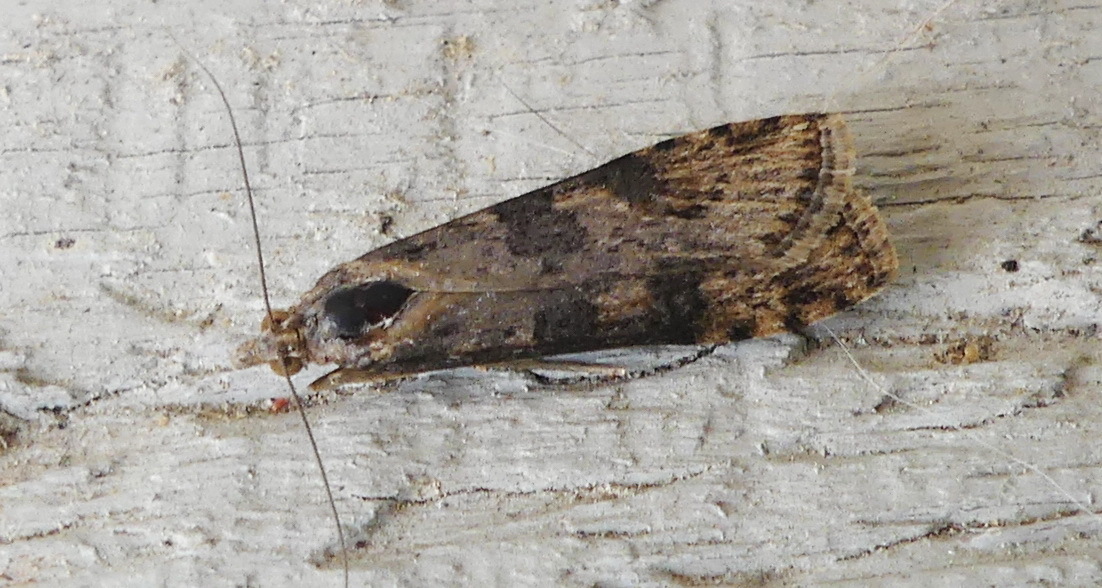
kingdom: Animalia
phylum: Arthropoda
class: Insecta
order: Lepidoptera
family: Crambidae
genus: Nomophila
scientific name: Nomophila nearctica
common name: American rush veneer
